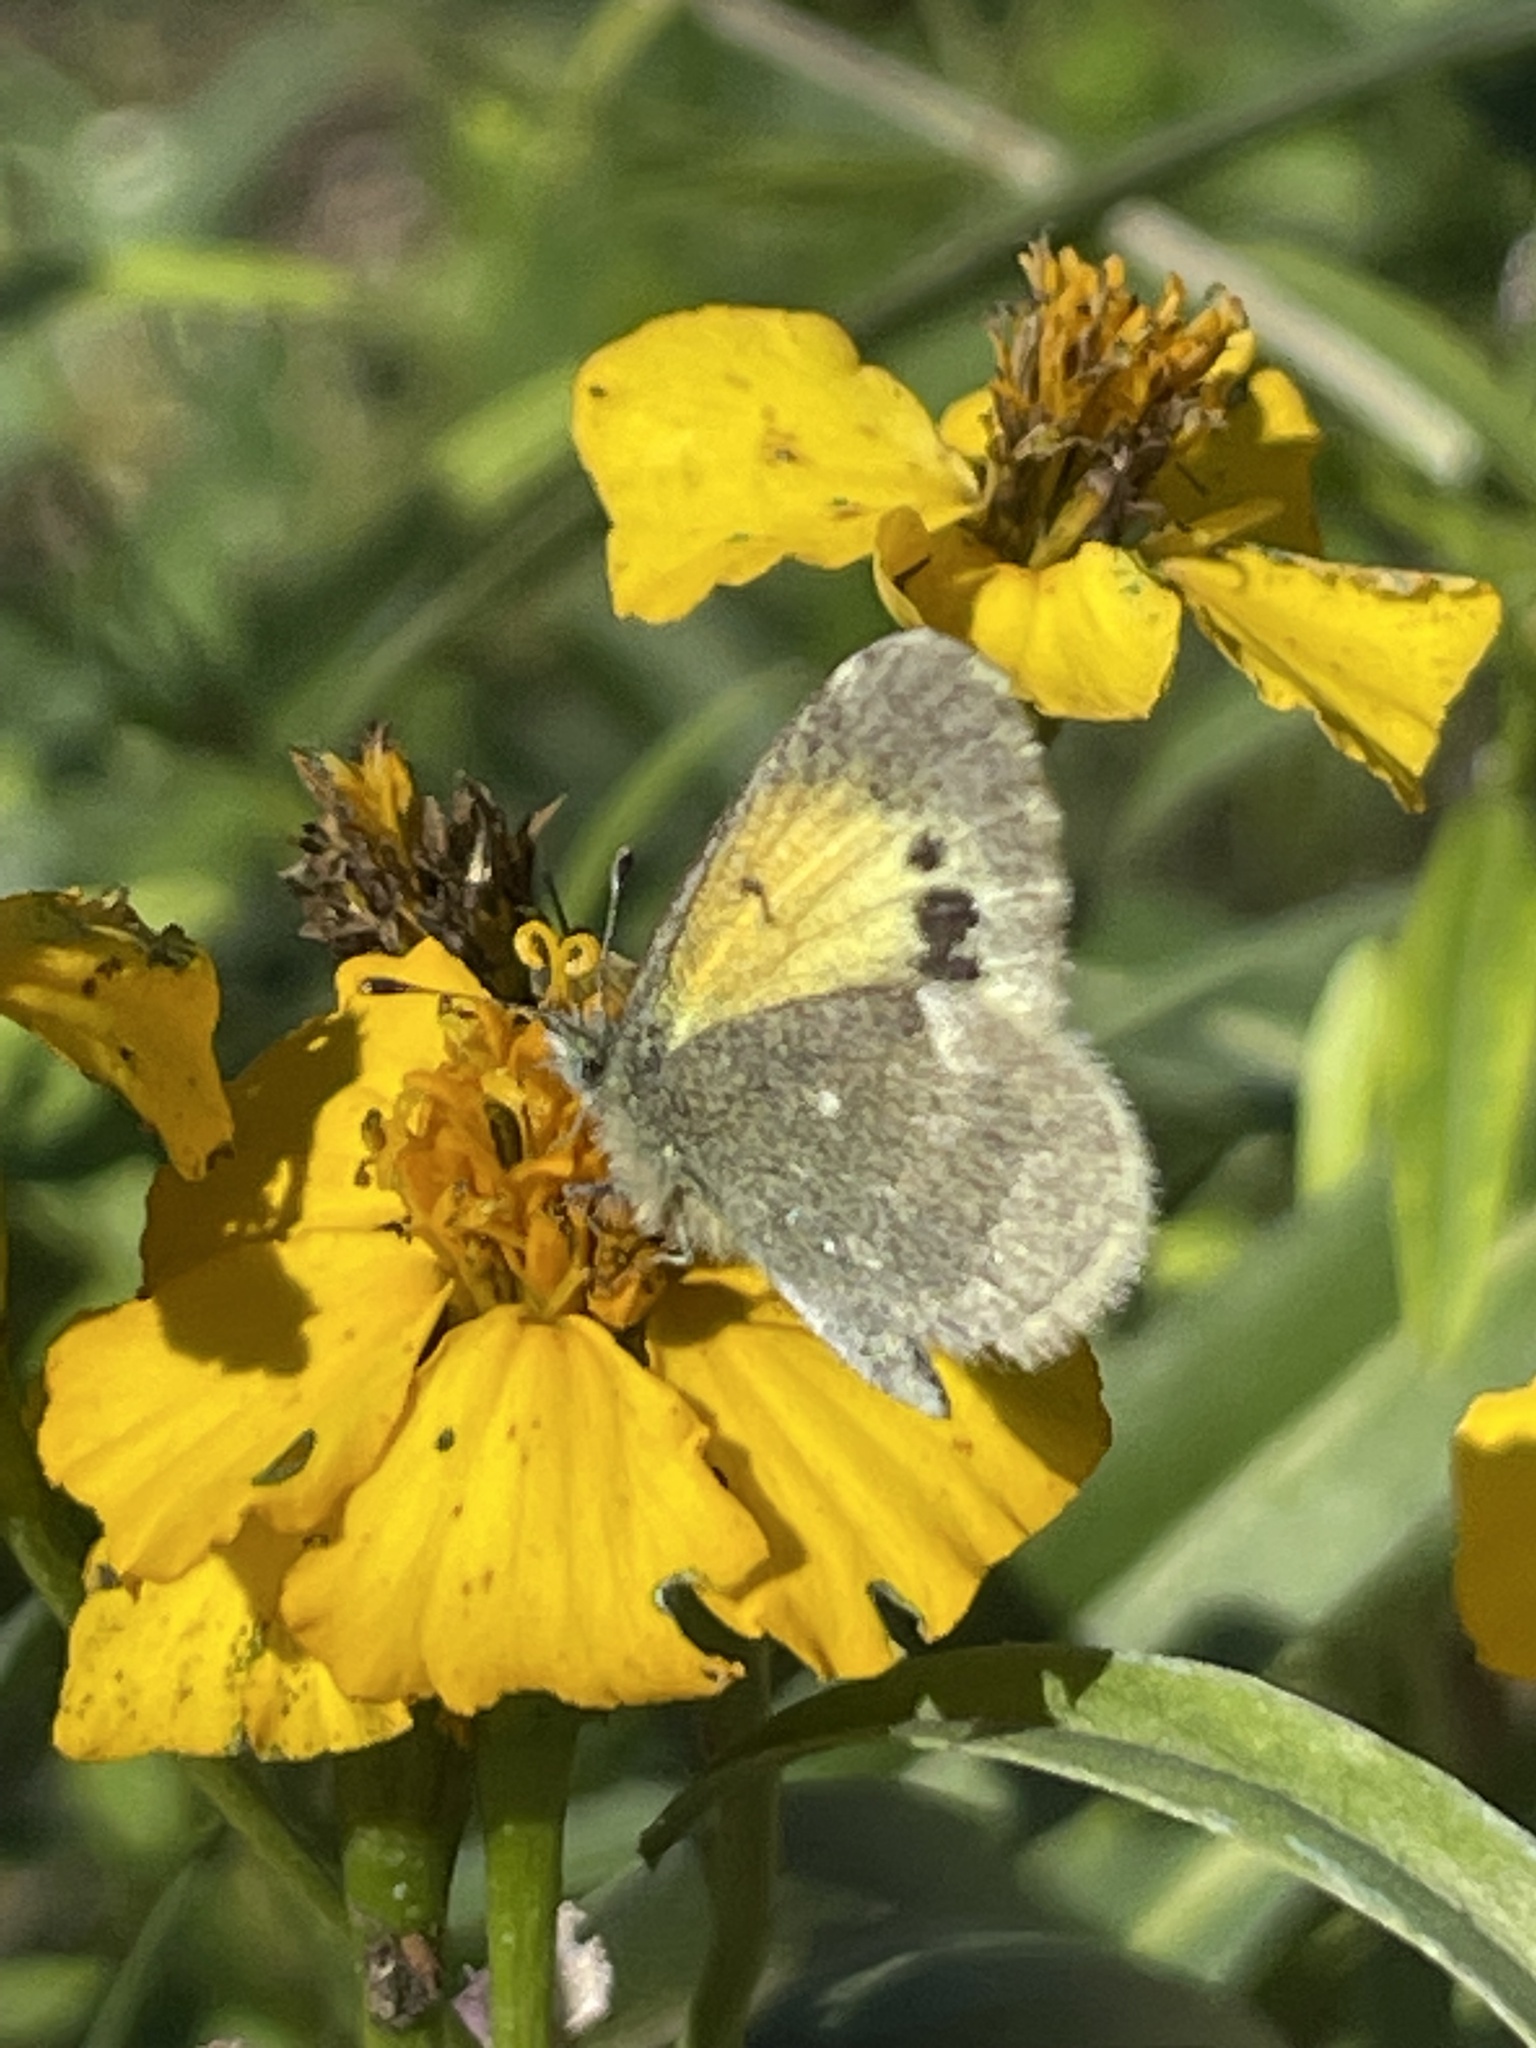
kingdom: Animalia
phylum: Arthropoda
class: Insecta
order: Lepidoptera
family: Pieridae
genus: Nathalis
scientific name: Nathalis iole
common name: Dainty sulphur
